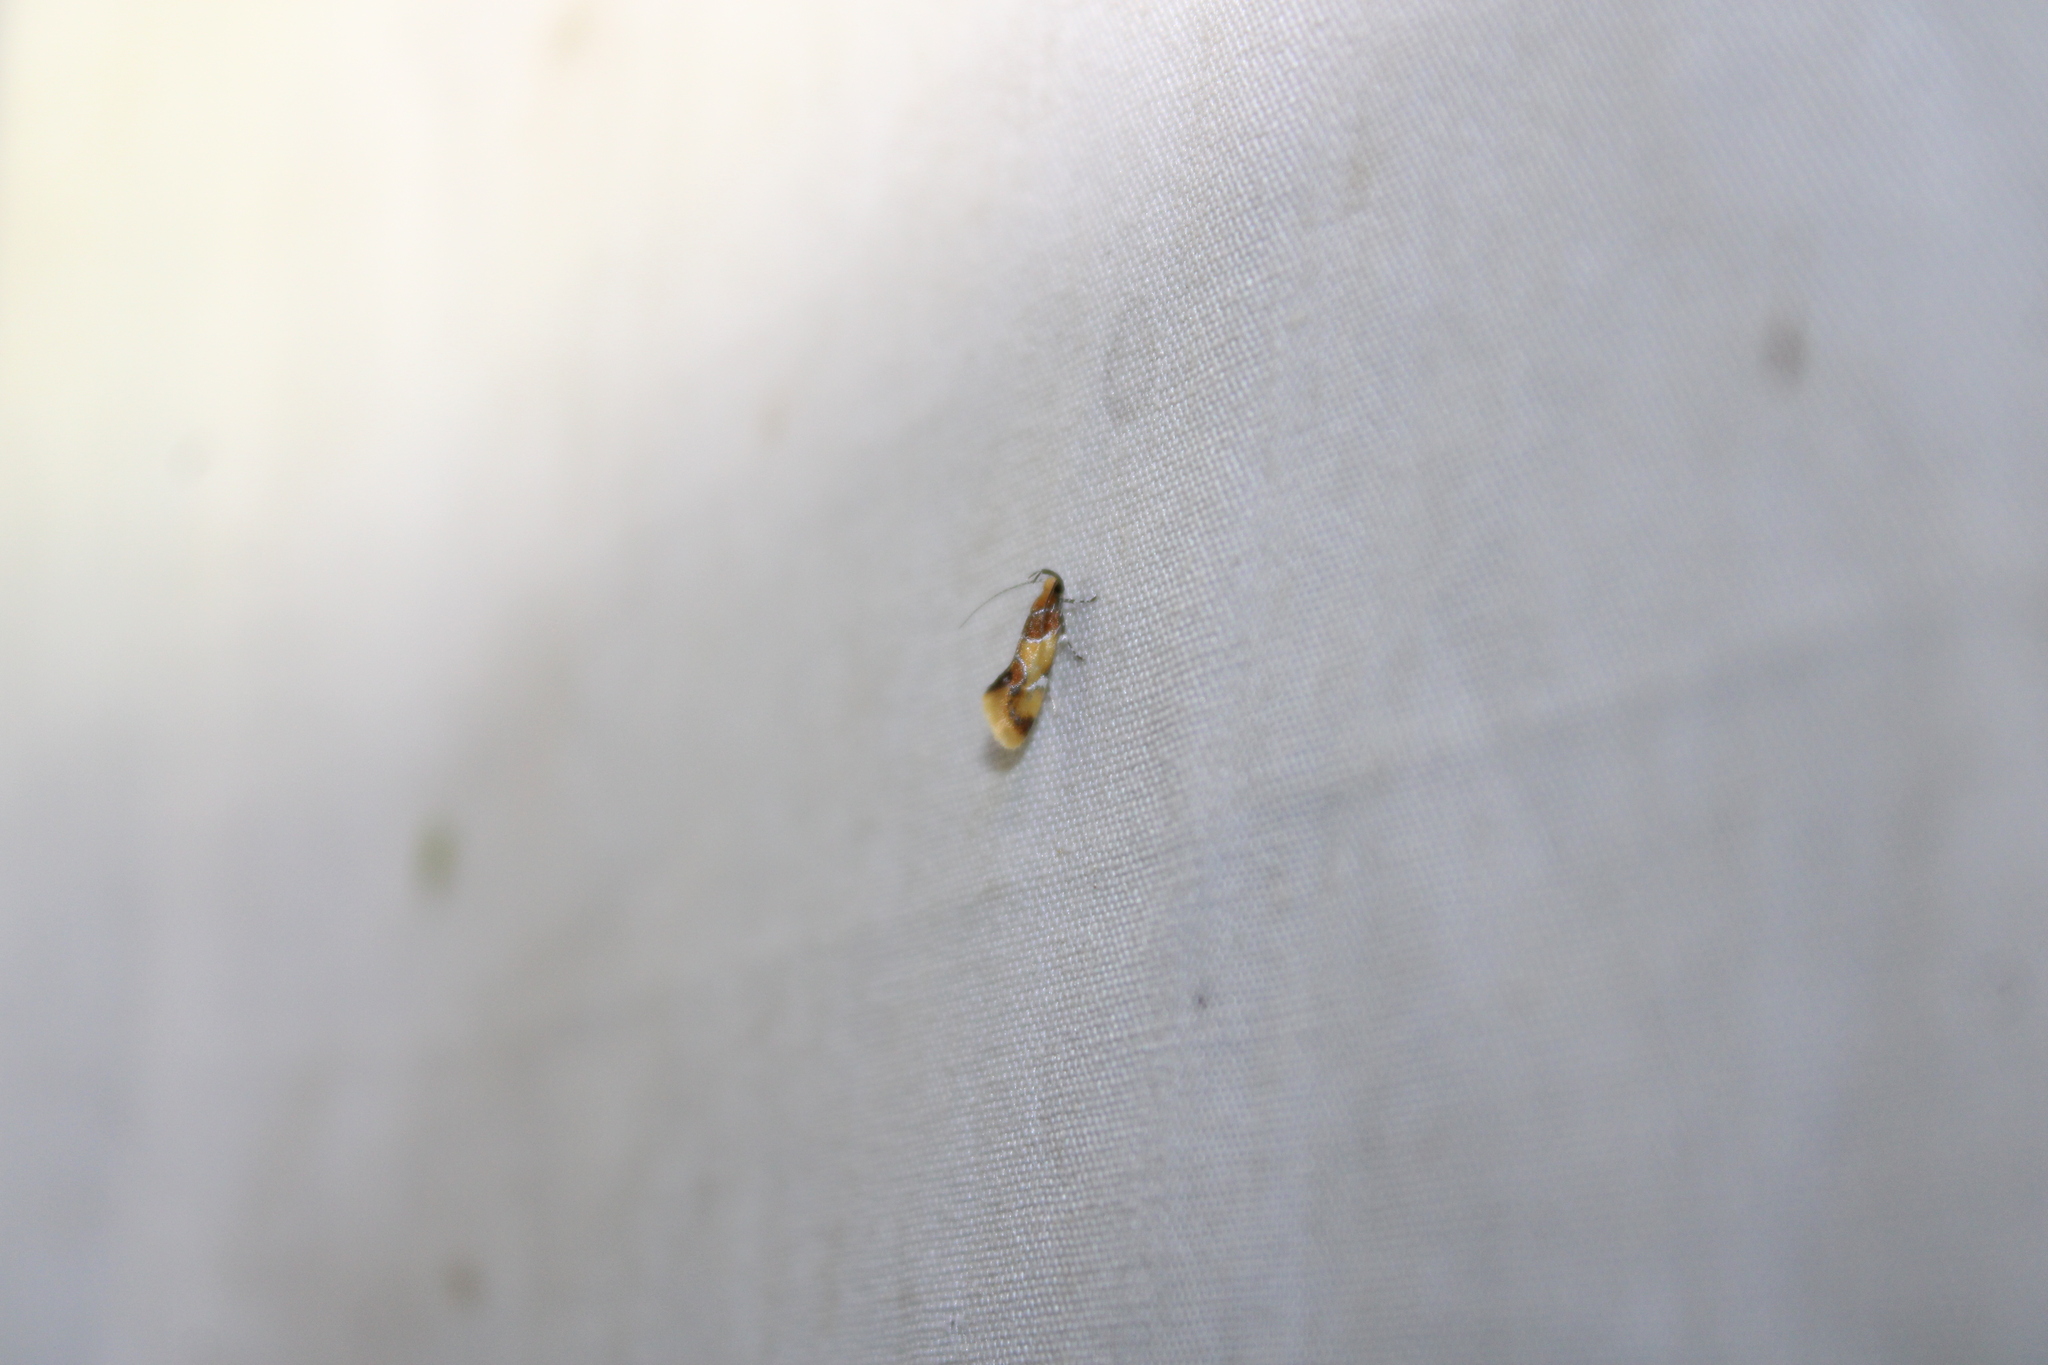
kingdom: Animalia
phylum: Arthropoda
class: Insecta
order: Lepidoptera
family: Oecophoridae
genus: Callima
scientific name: Callima argenticinctella
